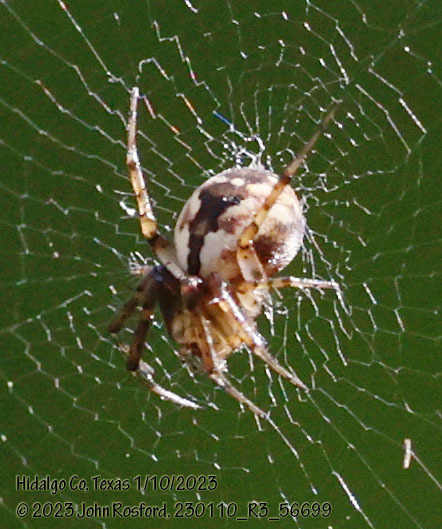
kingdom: Animalia
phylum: Arthropoda
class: Arachnida
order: Araneae
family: Araneidae
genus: Mangora
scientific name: Mangora placida
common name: Tuft-legged orbweaver
